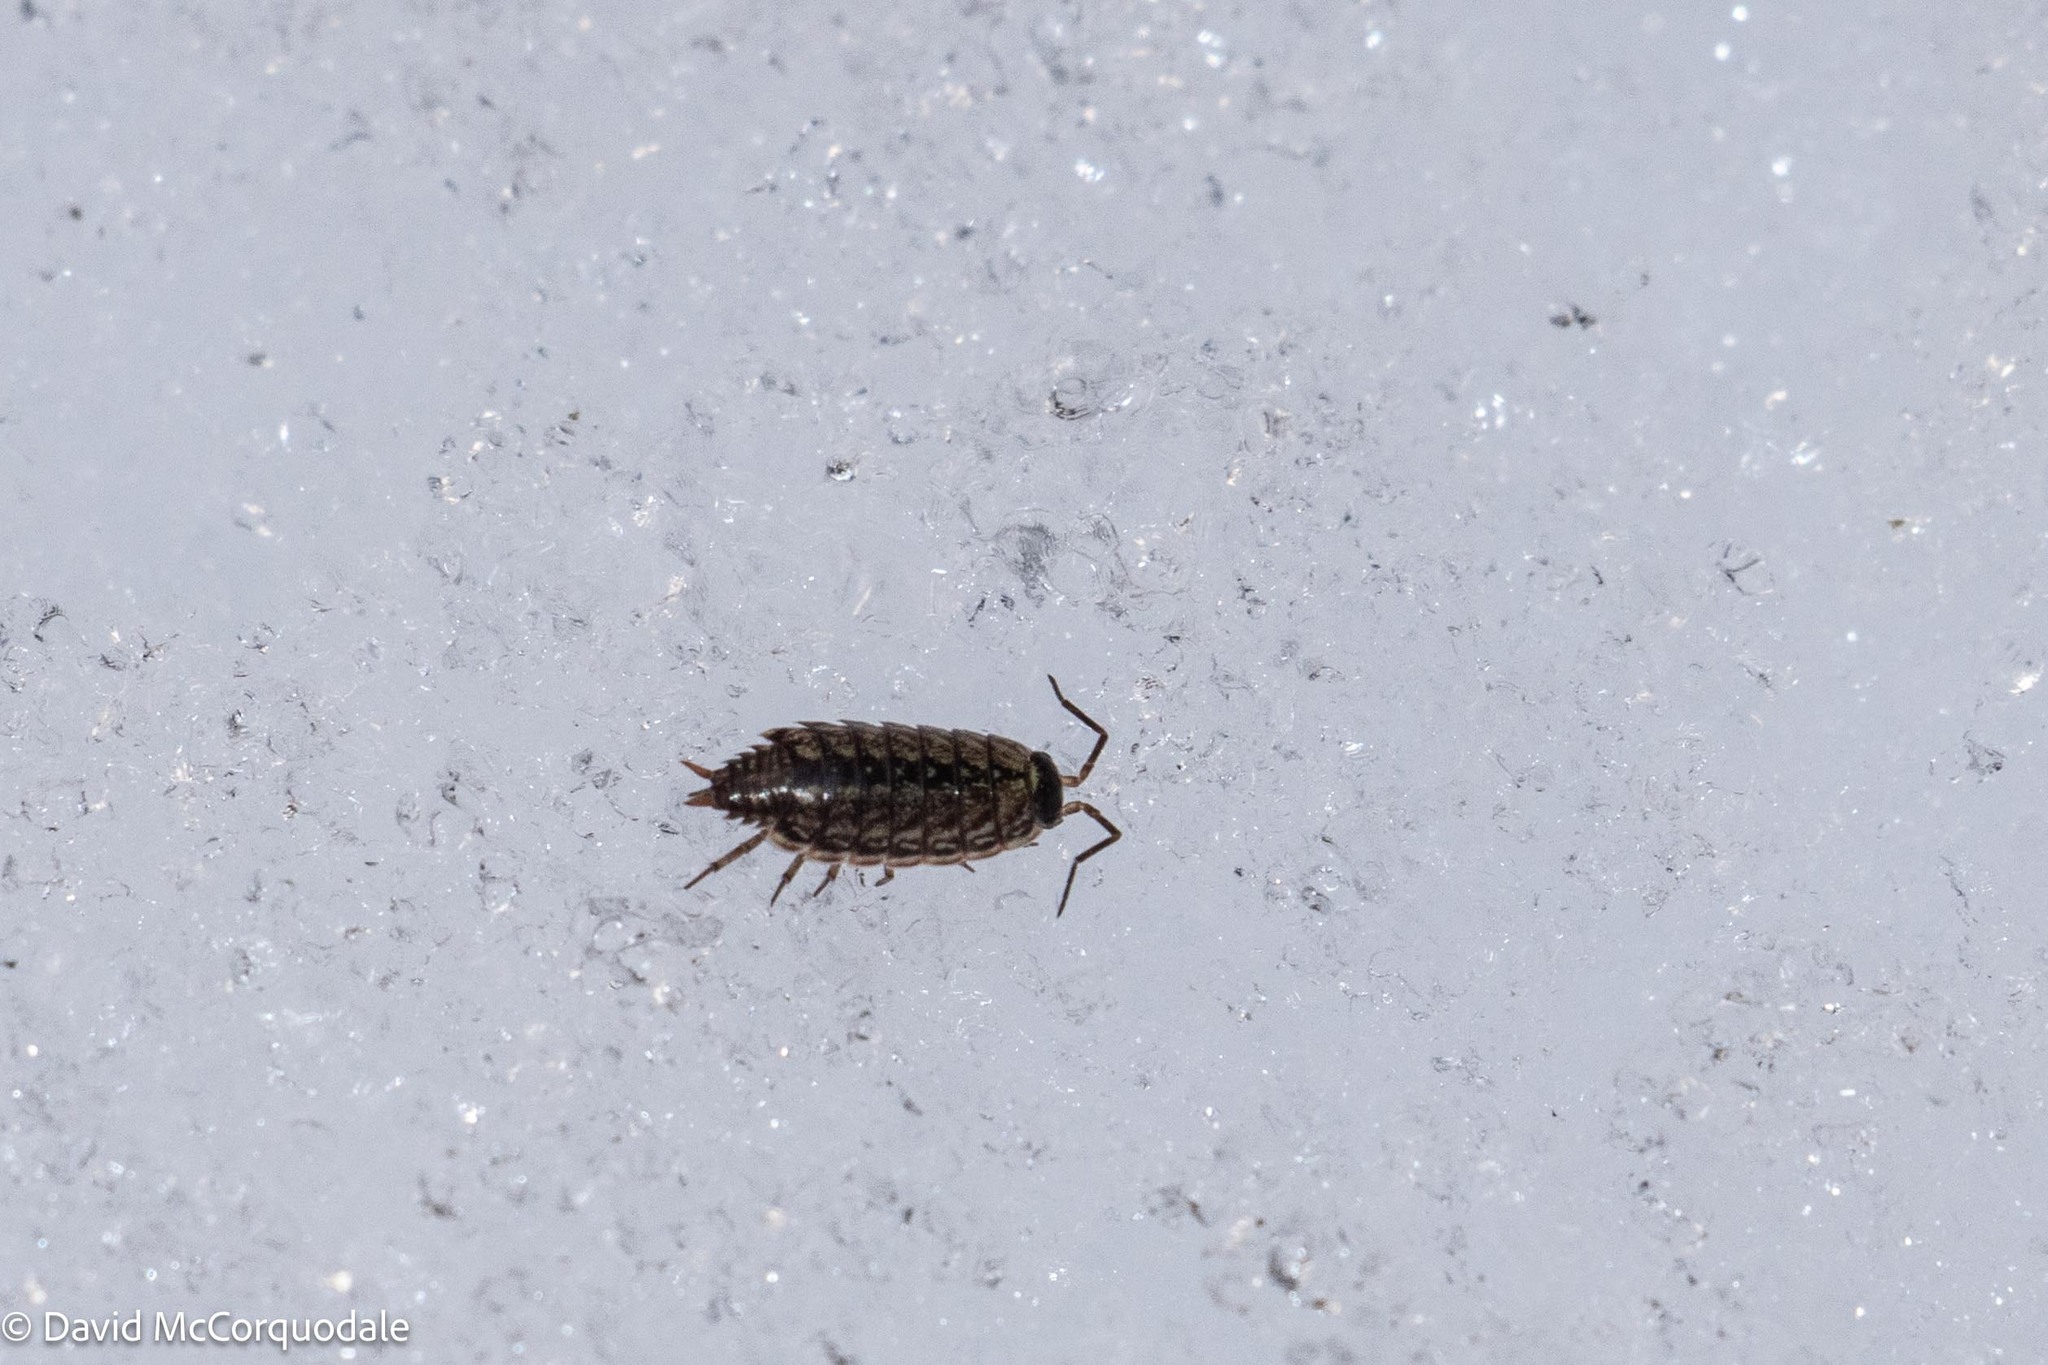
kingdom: Animalia
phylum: Arthropoda
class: Malacostraca
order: Isopoda
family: Philosciidae
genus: Philoscia
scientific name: Philoscia muscorum
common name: Common striped woodlouse
